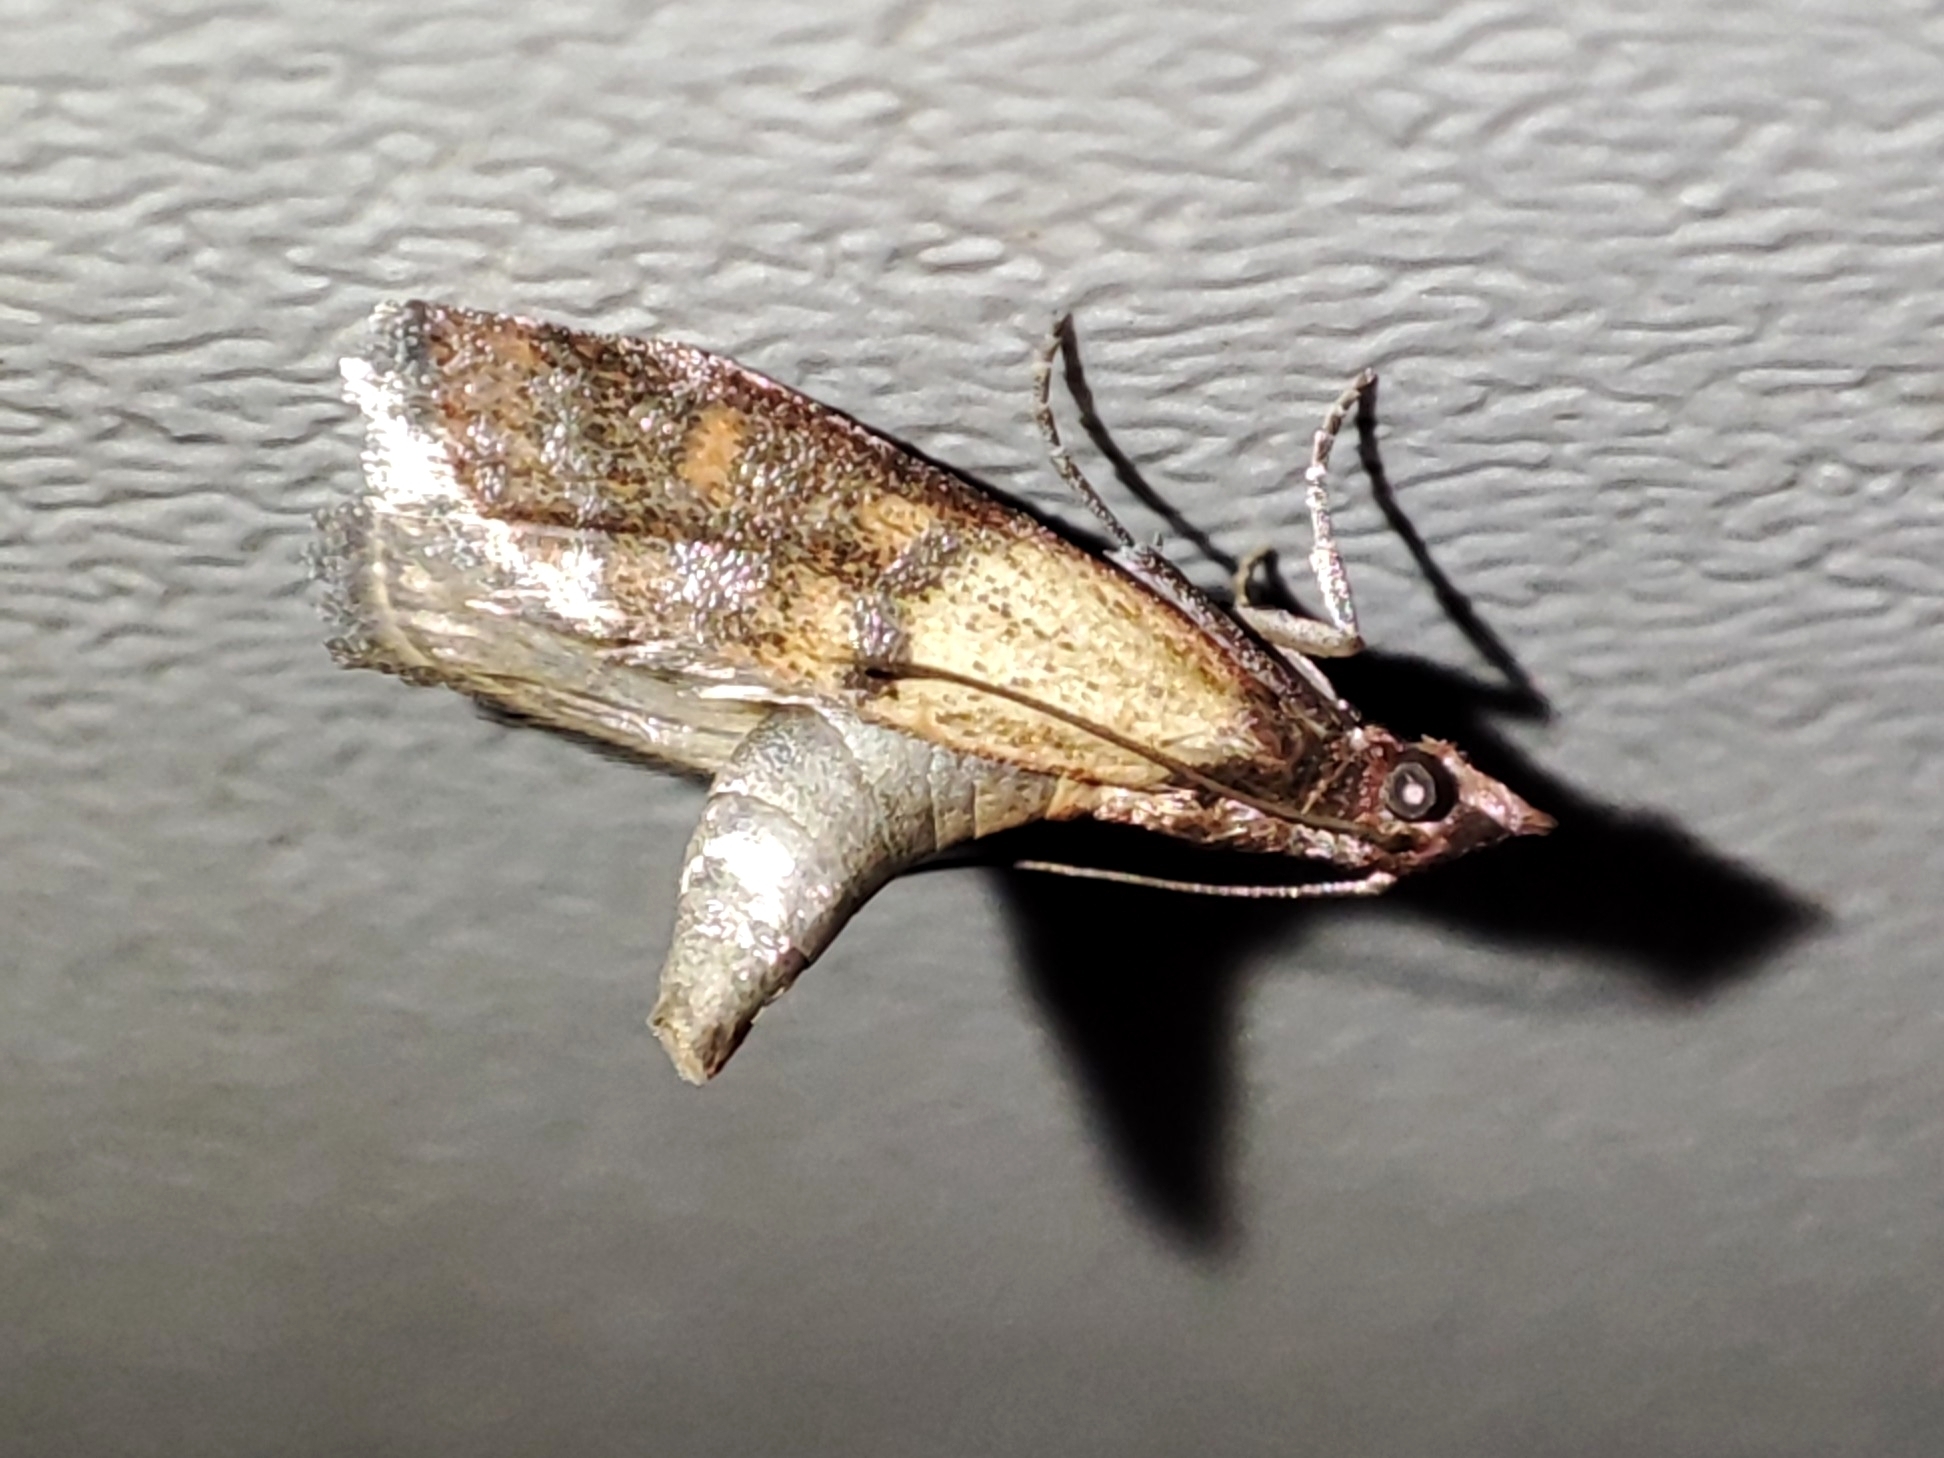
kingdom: Animalia
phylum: Arthropoda
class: Insecta
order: Lepidoptera
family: Pyralidae
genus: Plodia
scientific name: Plodia interpunctella
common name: Indian meal moth
